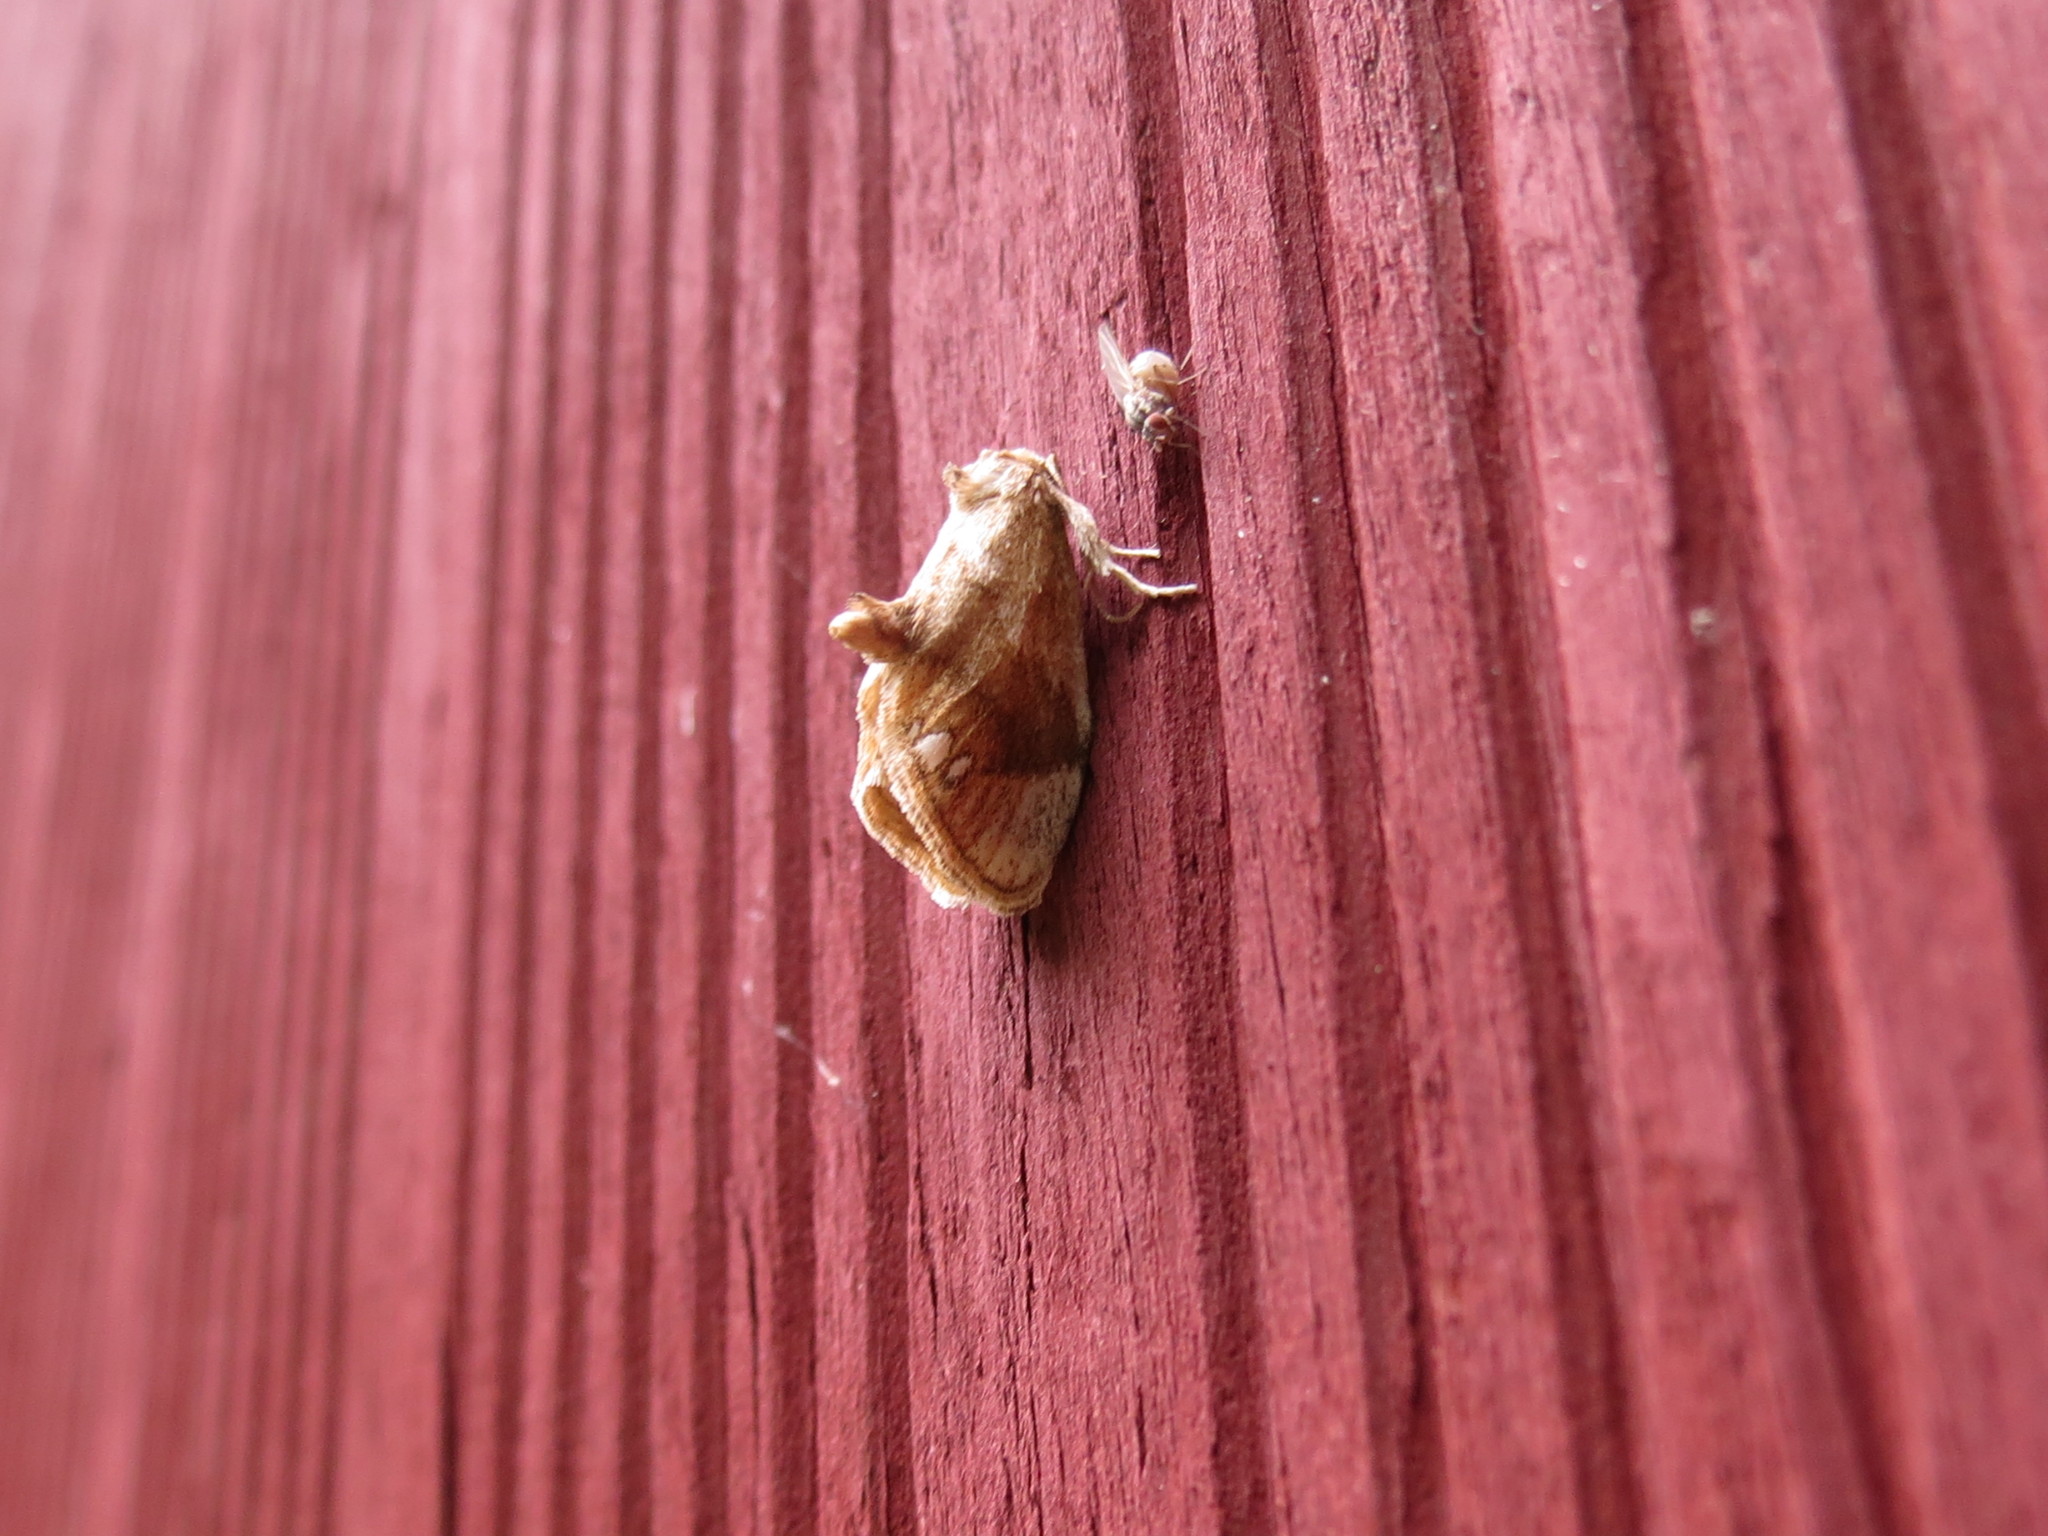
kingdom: Animalia
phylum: Arthropoda
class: Insecta
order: Lepidoptera
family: Limacodidae
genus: Packardia
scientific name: Packardia geminata
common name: Jeweled tailed slug moth
